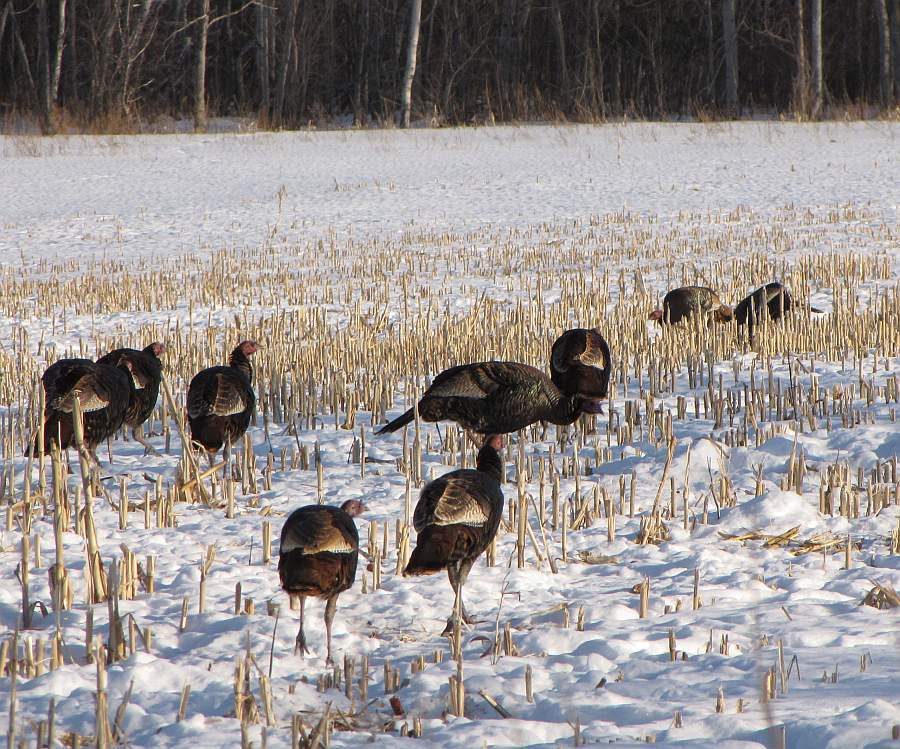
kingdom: Animalia
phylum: Chordata
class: Aves
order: Galliformes
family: Phasianidae
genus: Meleagris
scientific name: Meleagris gallopavo
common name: Wild turkey
